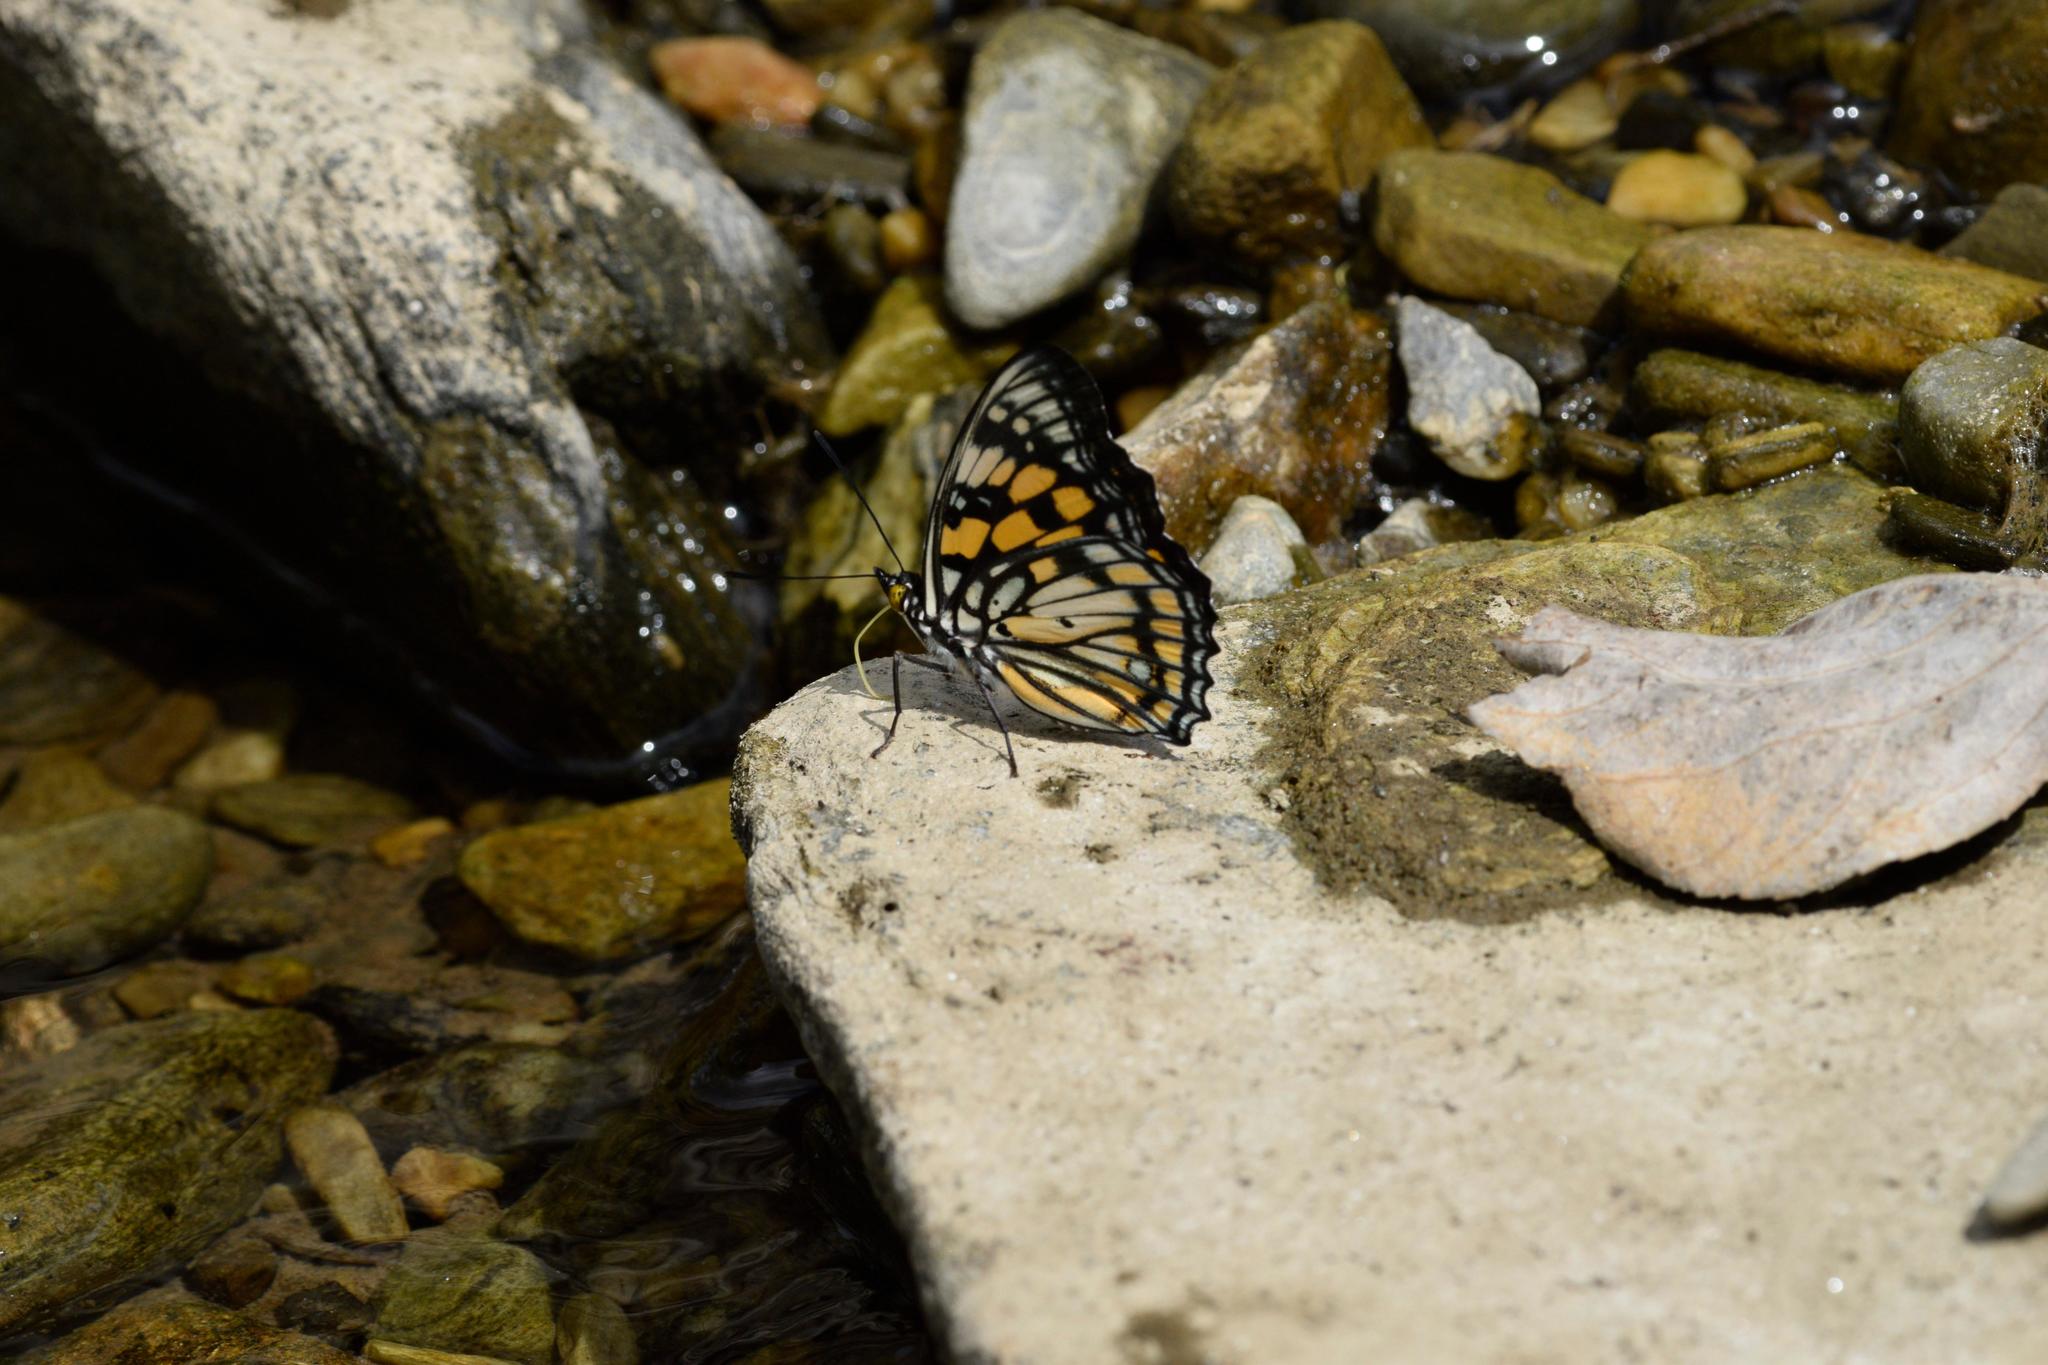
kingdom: Animalia
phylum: Arthropoda
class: Insecta
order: Lepidoptera
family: Nymphalidae
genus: Sephisa
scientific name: Sephisa dichroa
